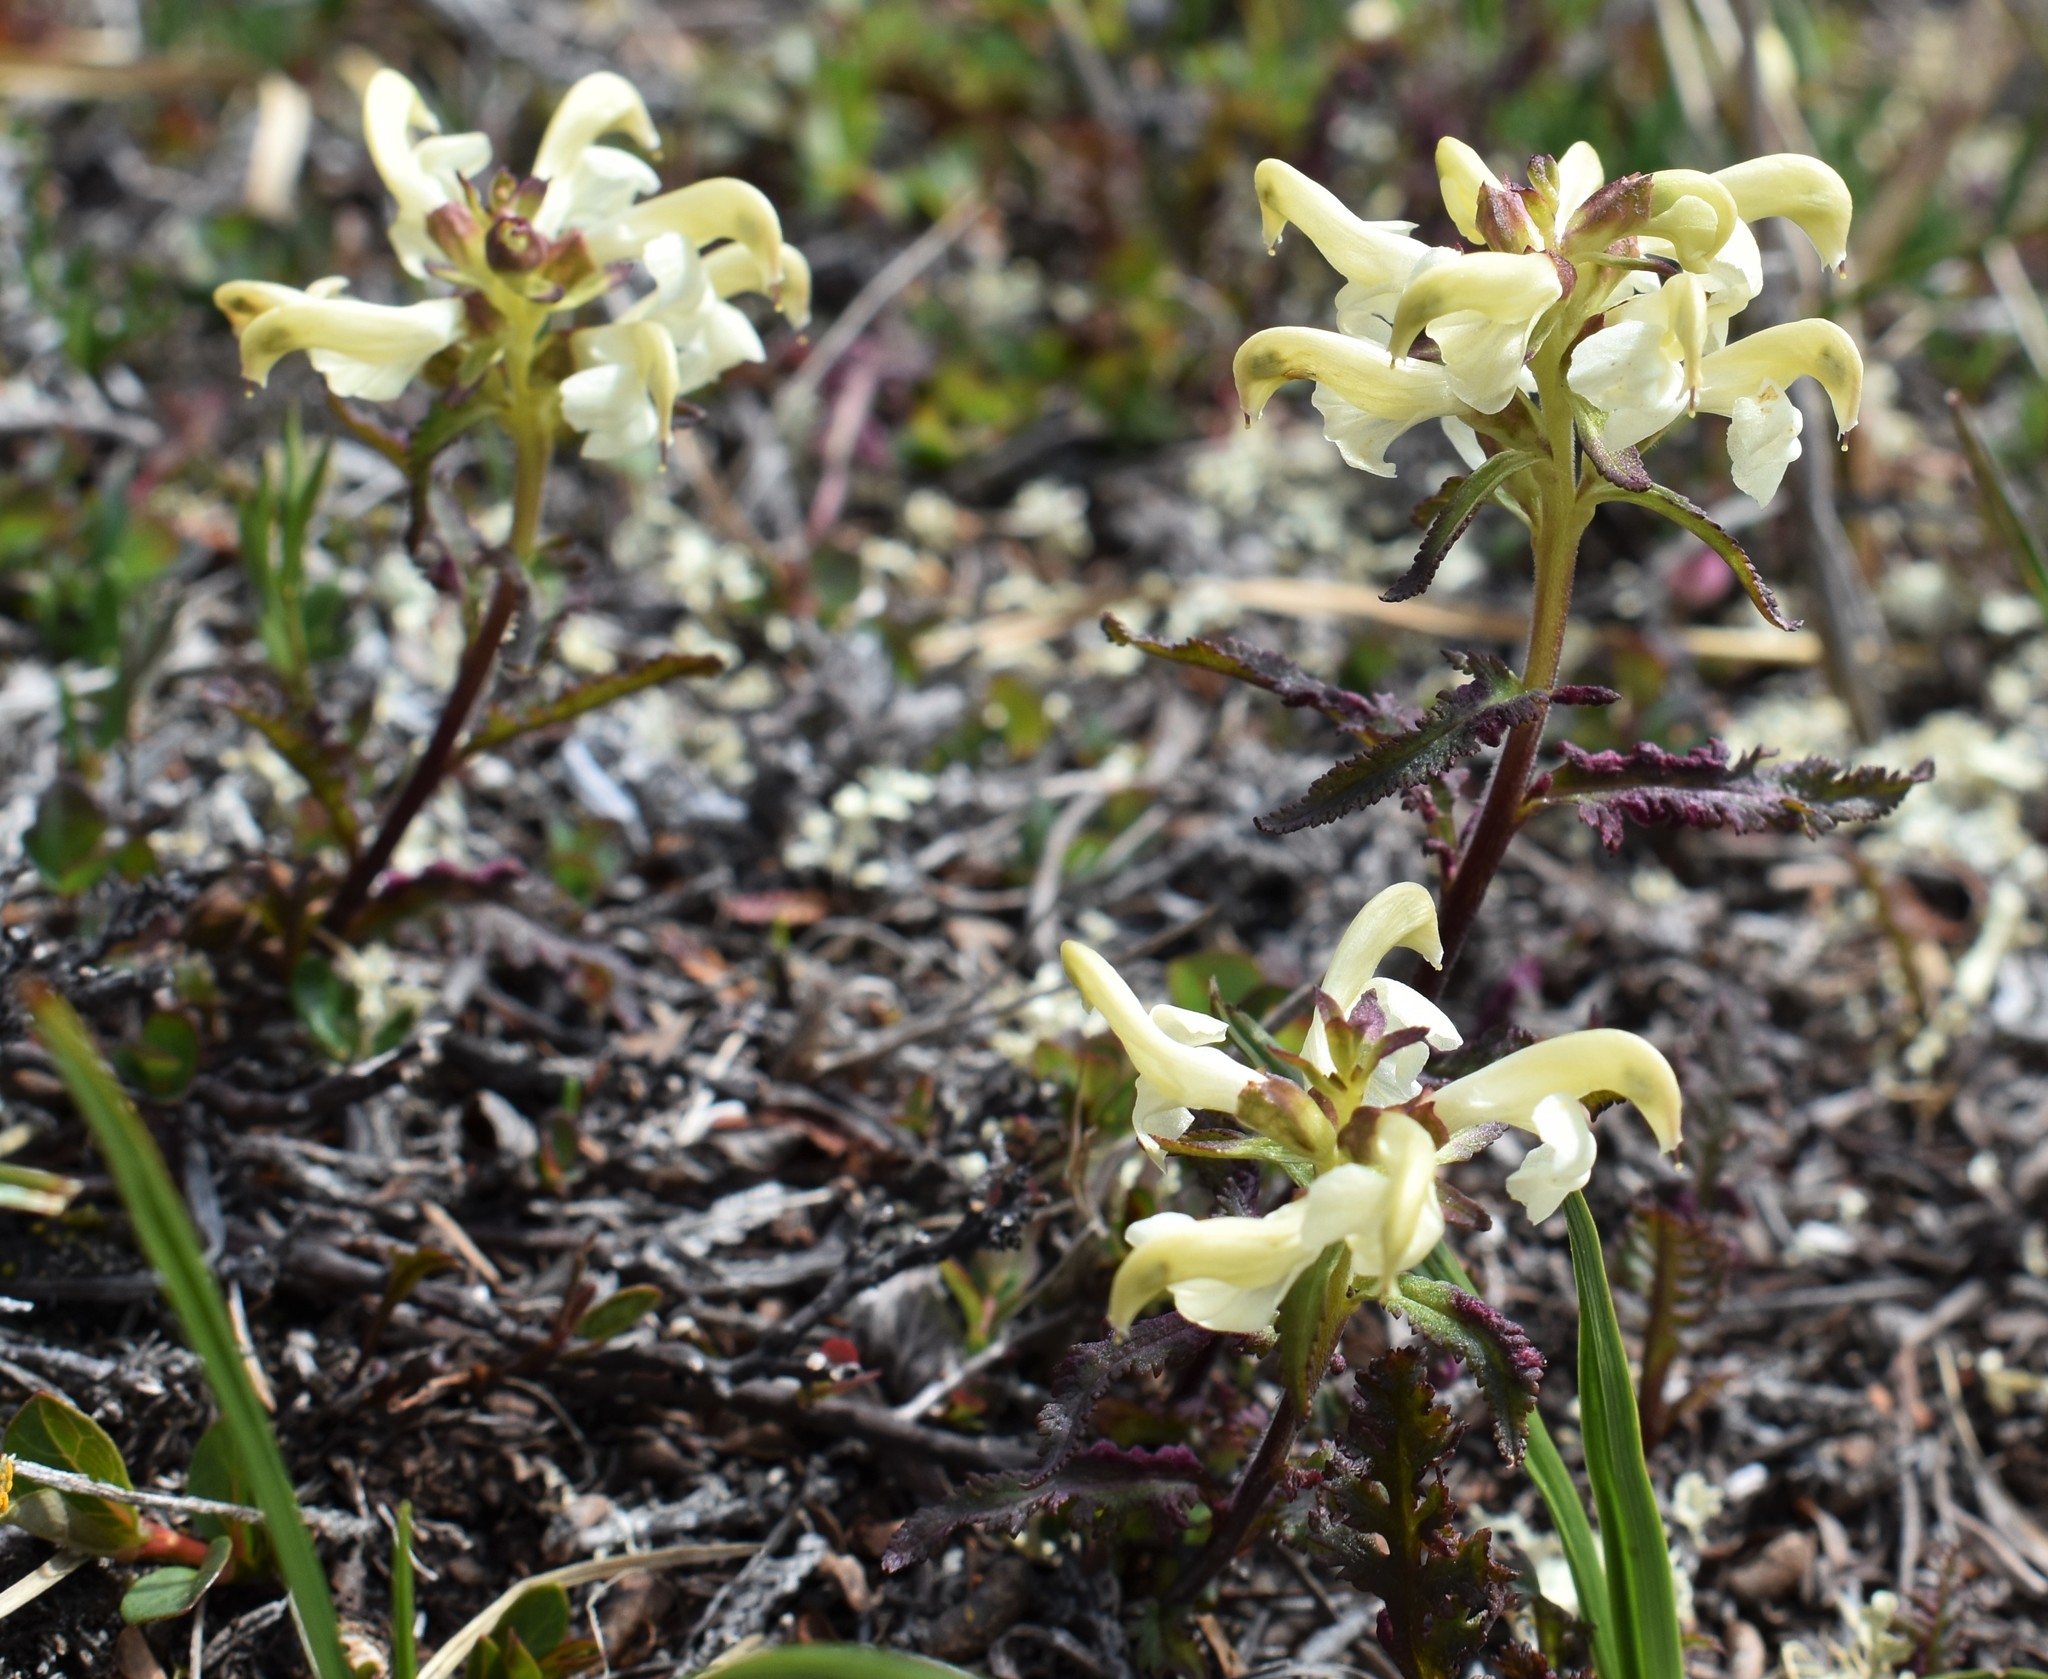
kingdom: Plantae
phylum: Tracheophyta
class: Magnoliopsida
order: Lamiales
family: Orobanchaceae
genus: Pedicularis
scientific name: Pedicularis lapponica
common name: Lapland lousewort
